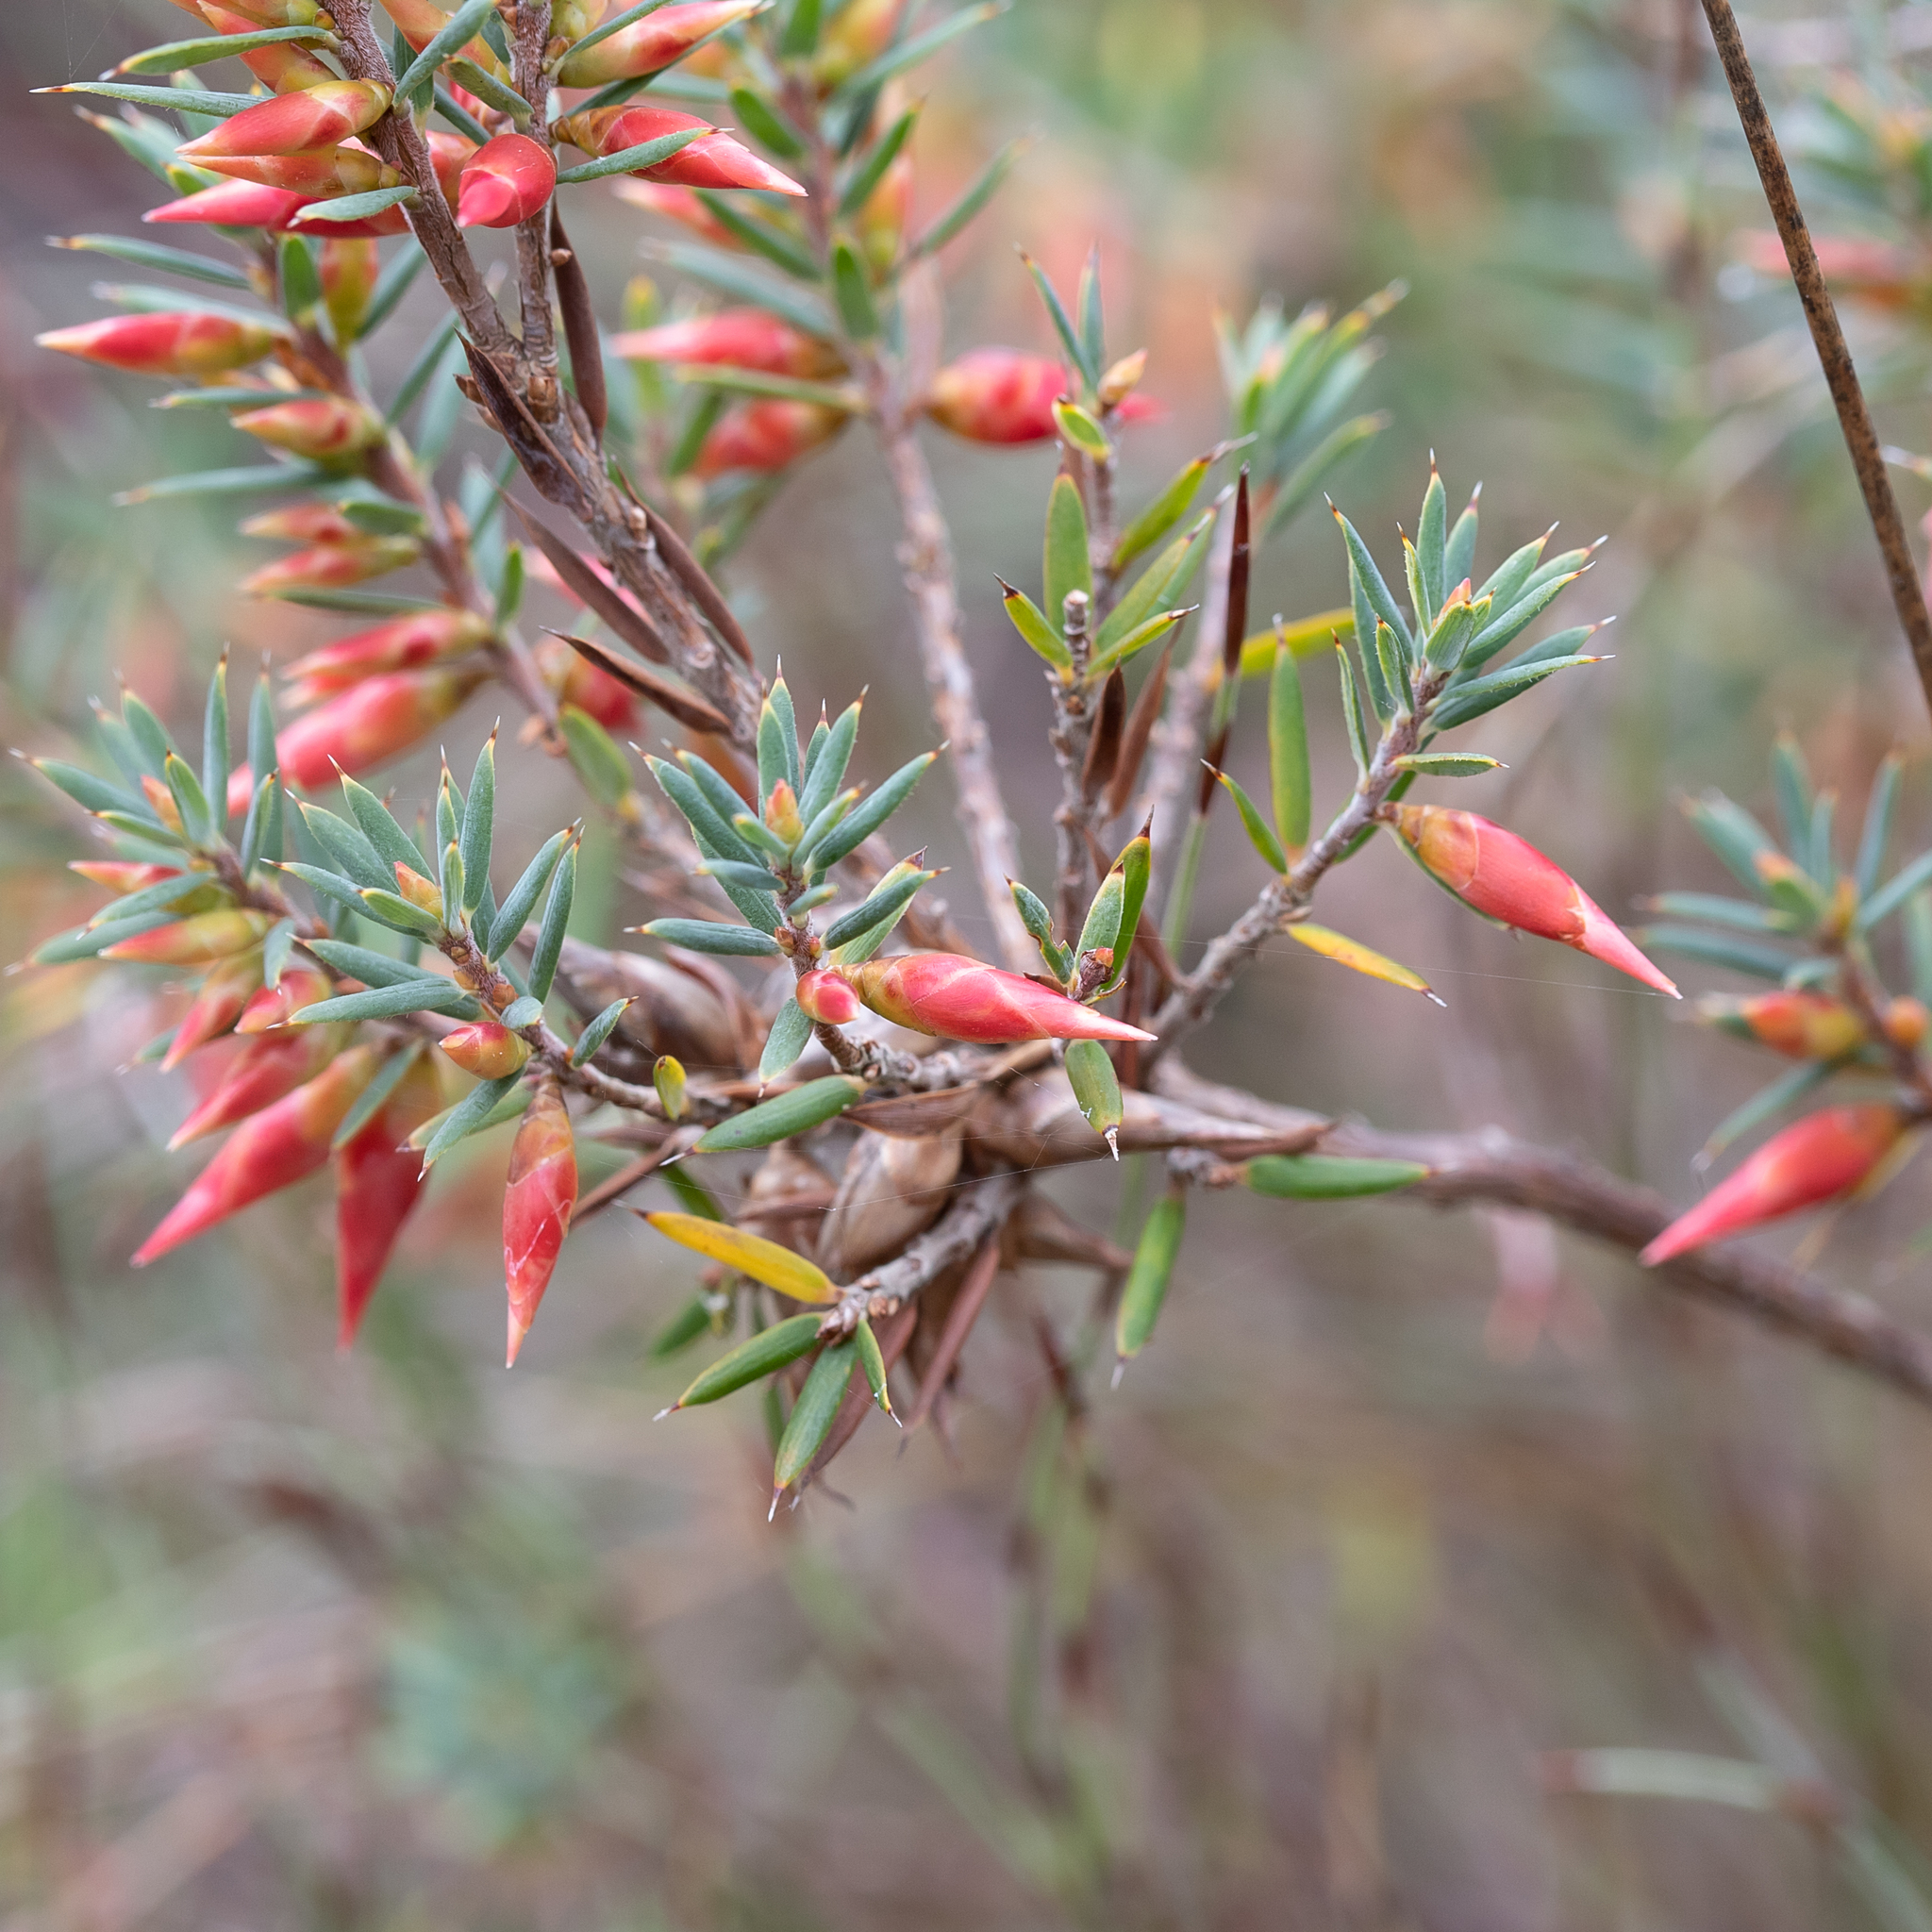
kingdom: Plantae
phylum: Tracheophyta
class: Magnoliopsida
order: Ericales
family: Ericaceae
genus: Stenanthera
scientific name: Stenanthera conostephioides
